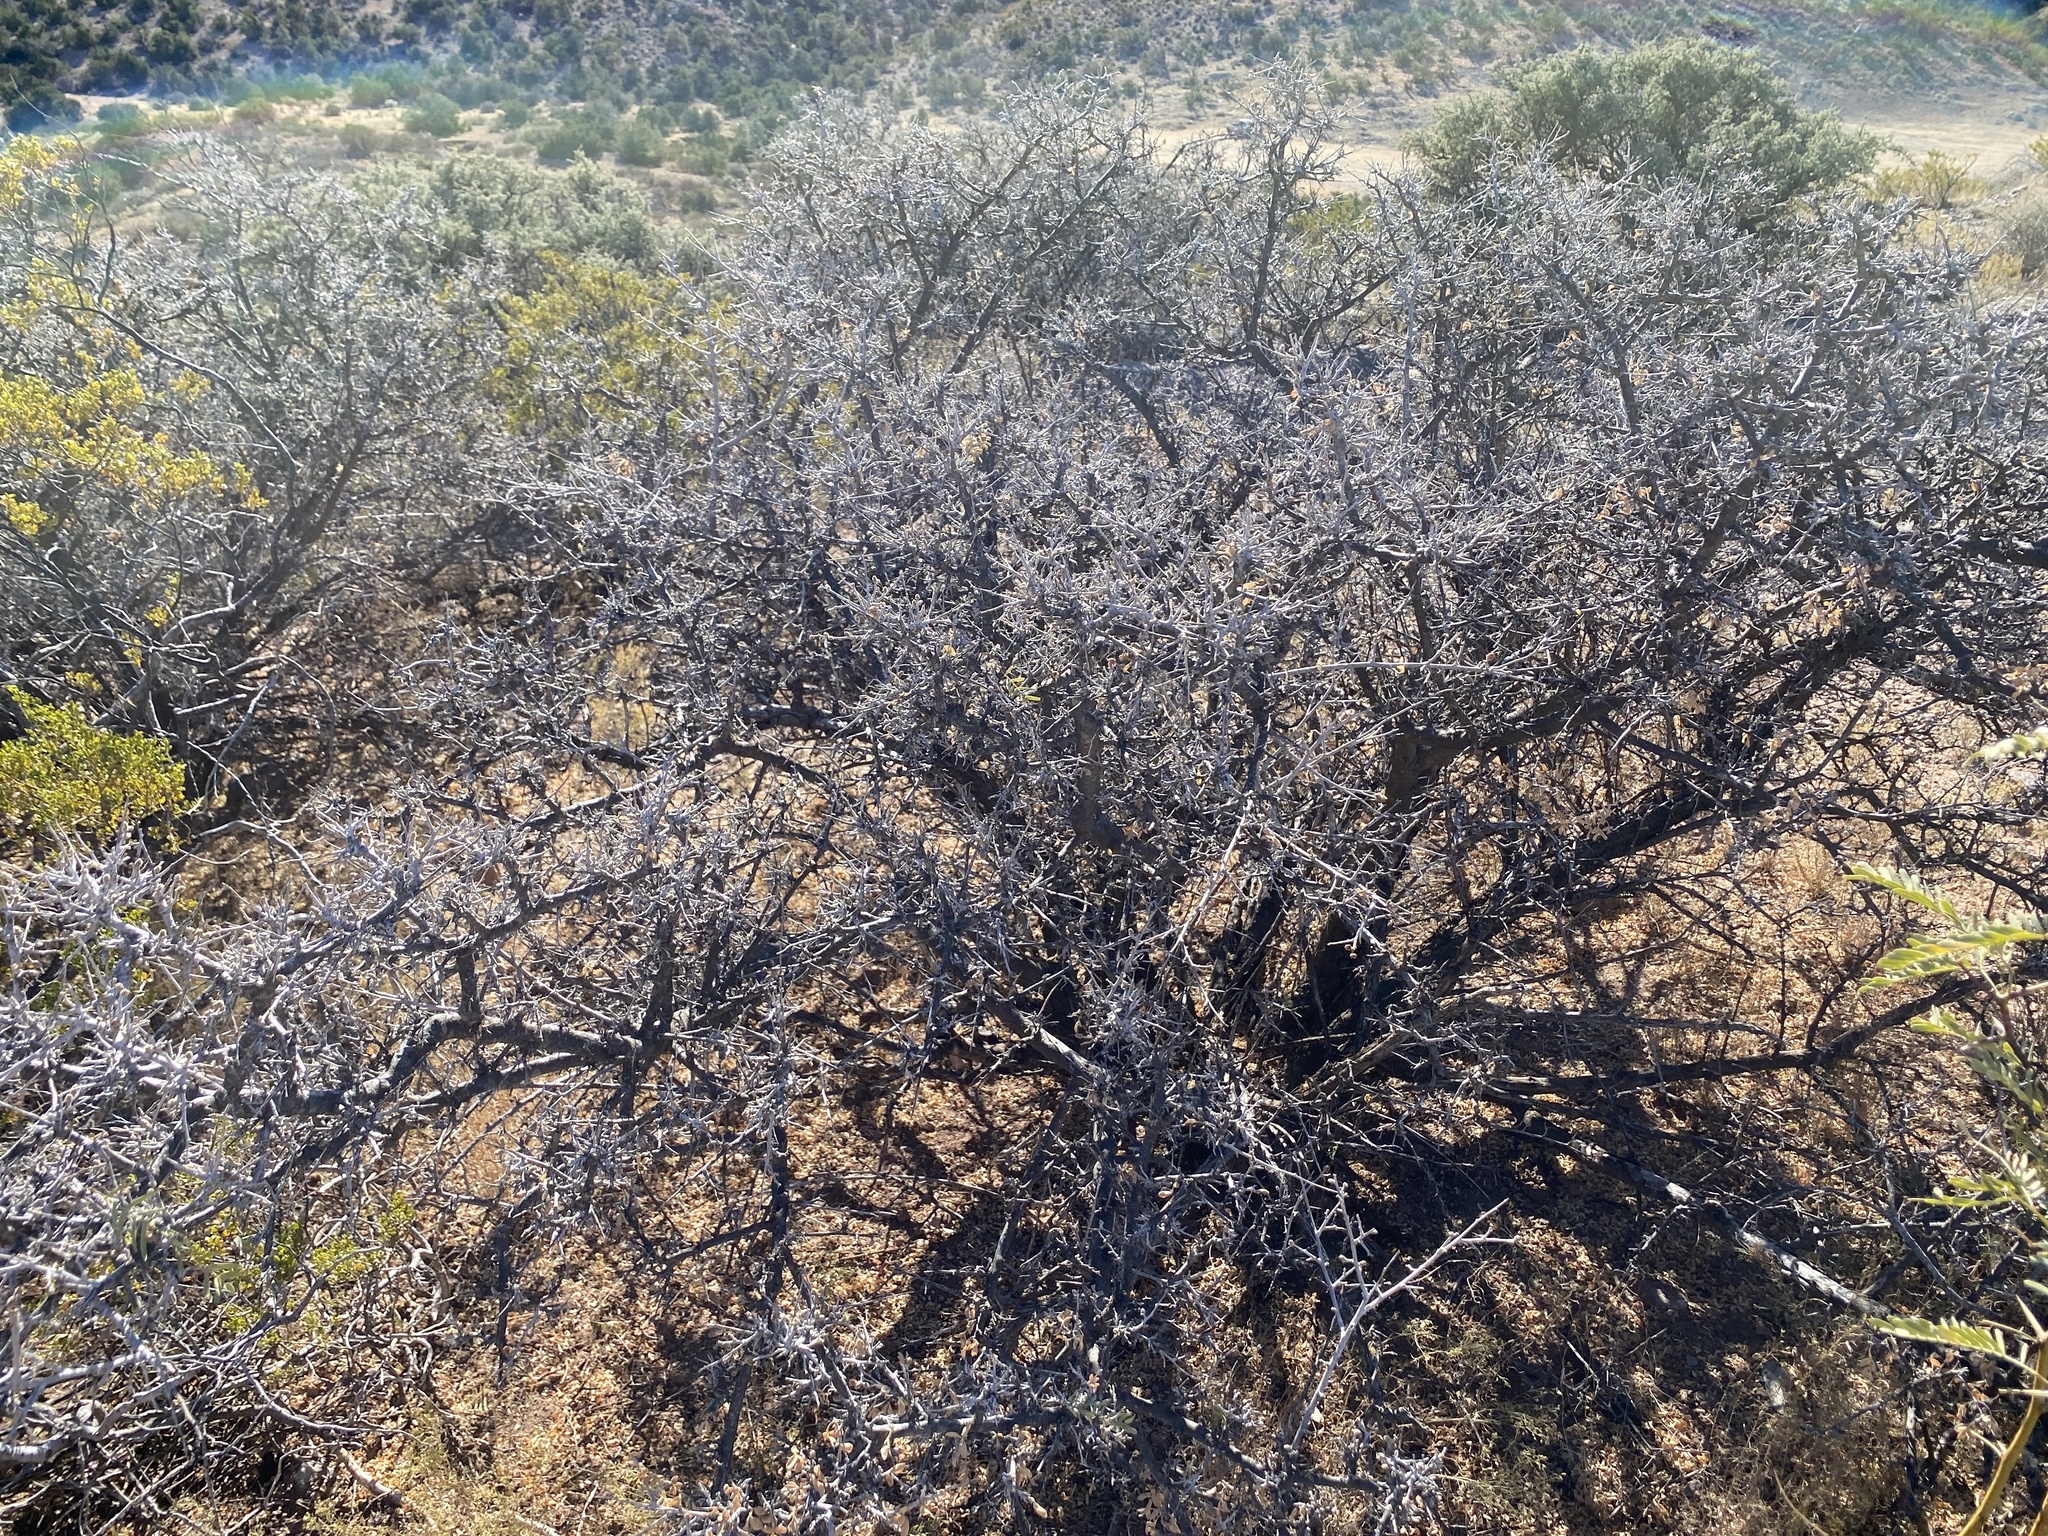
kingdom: Plantae
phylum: Tracheophyta
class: Magnoliopsida
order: Sapindales
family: Anacardiaceae
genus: Rhus
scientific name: Rhus microphylla
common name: Desert sumac
